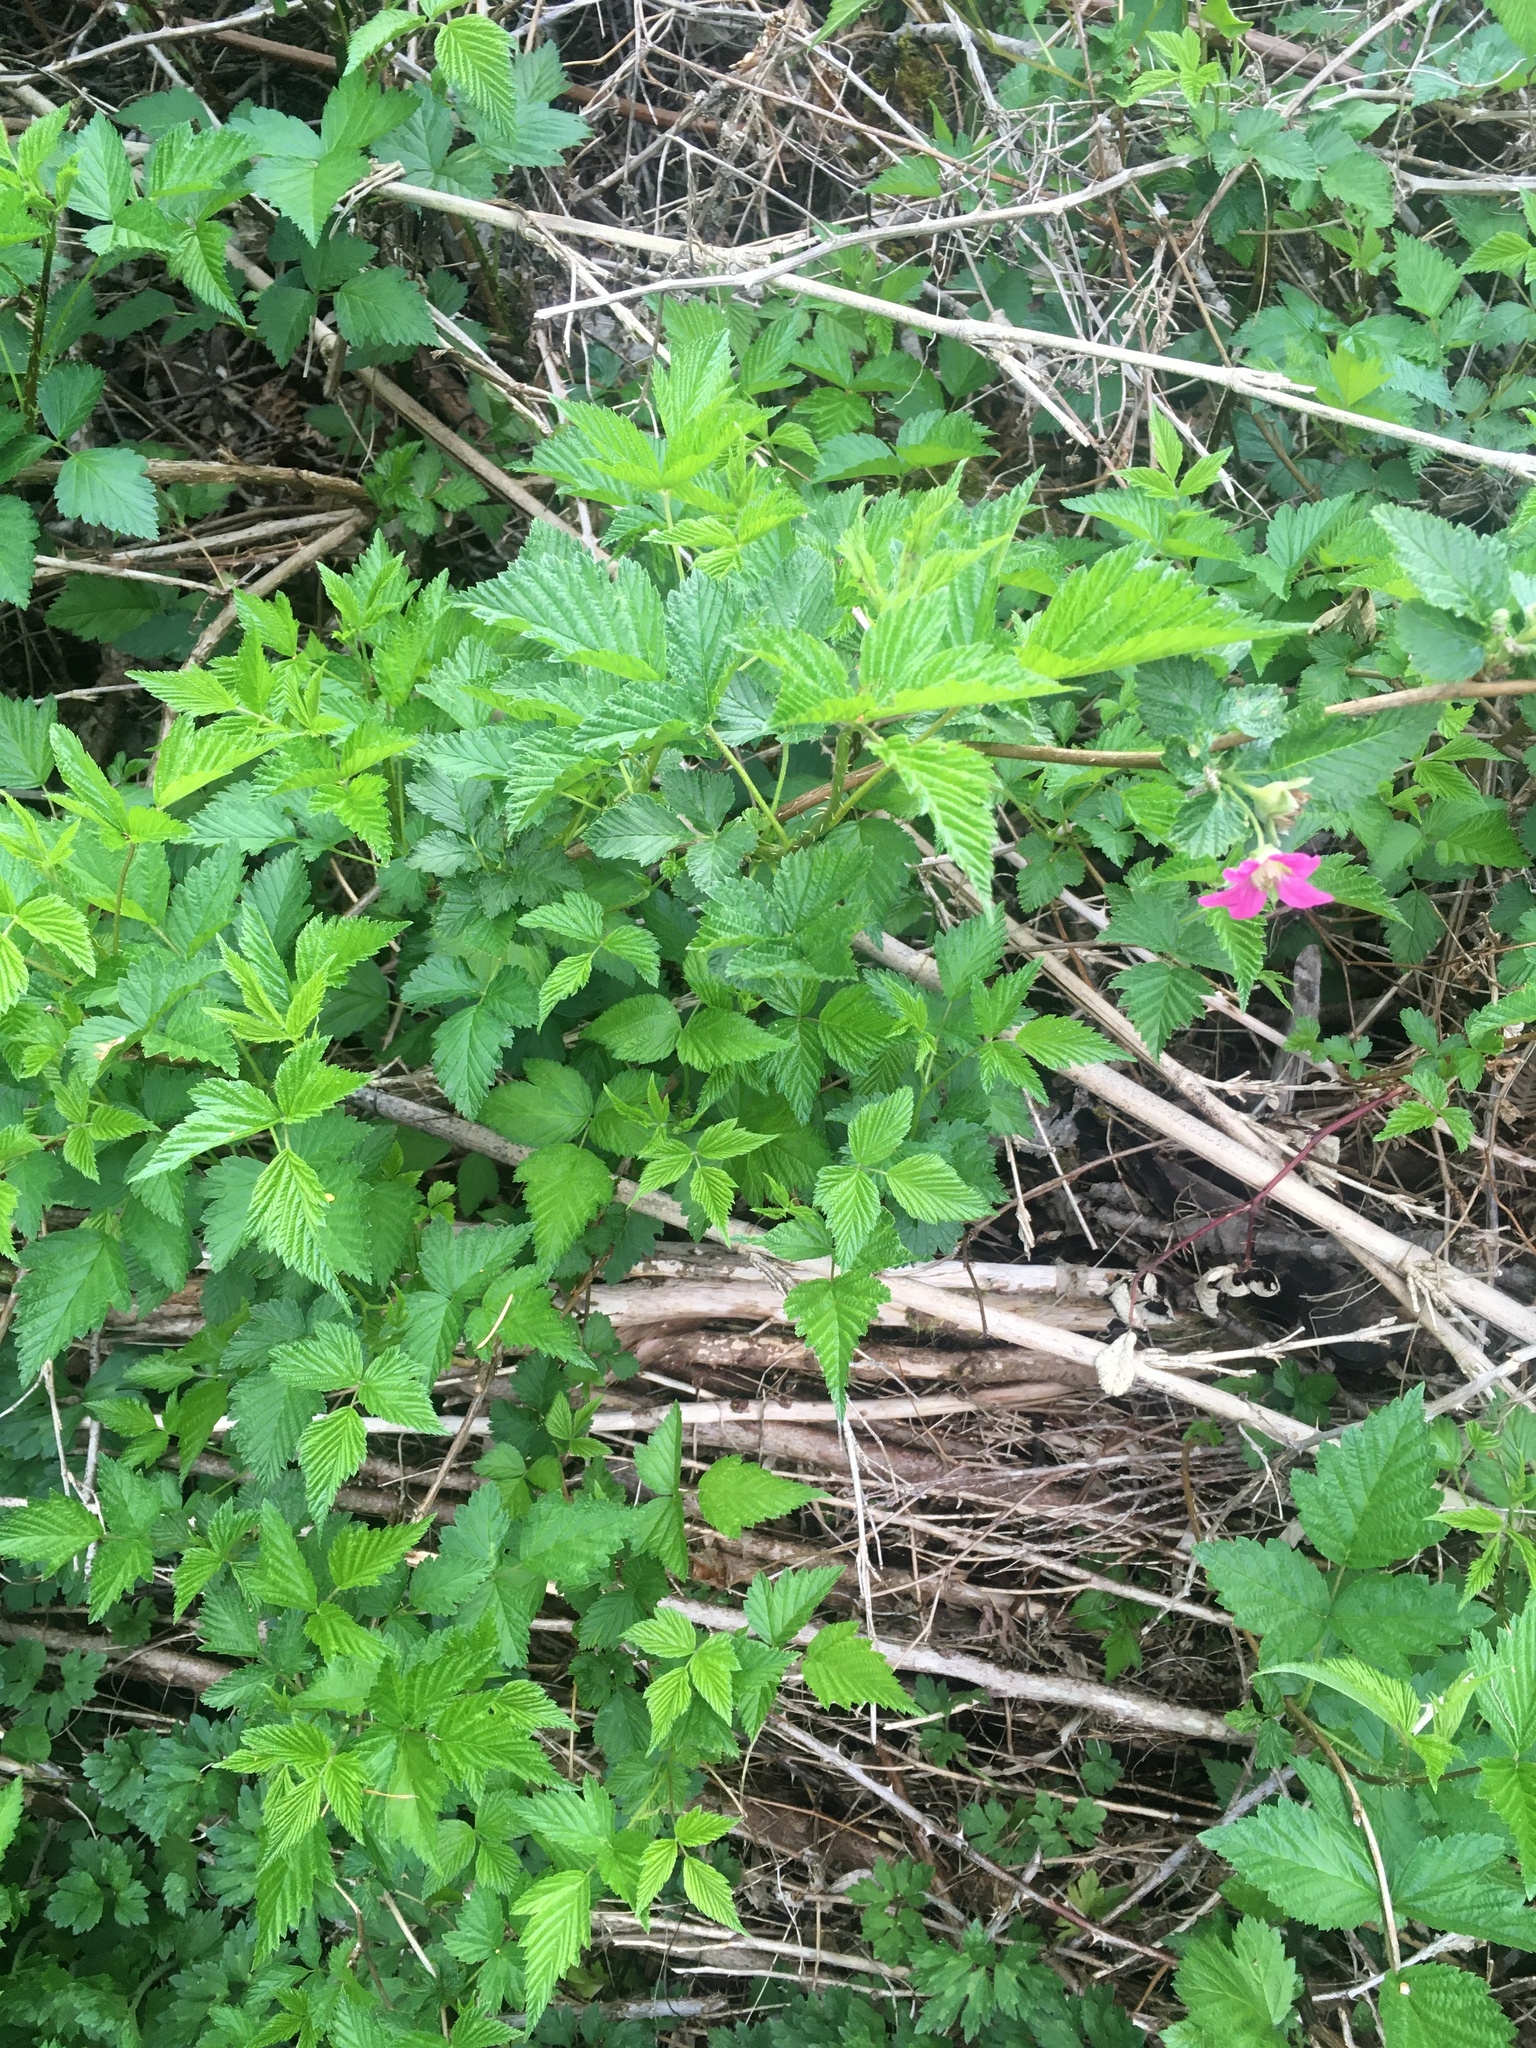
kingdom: Plantae
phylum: Tracheophyta
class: Magnoliopsida
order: Rosales
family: Rosaceae
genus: Rubus
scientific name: Rubus spectabilis
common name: Salmonberry
